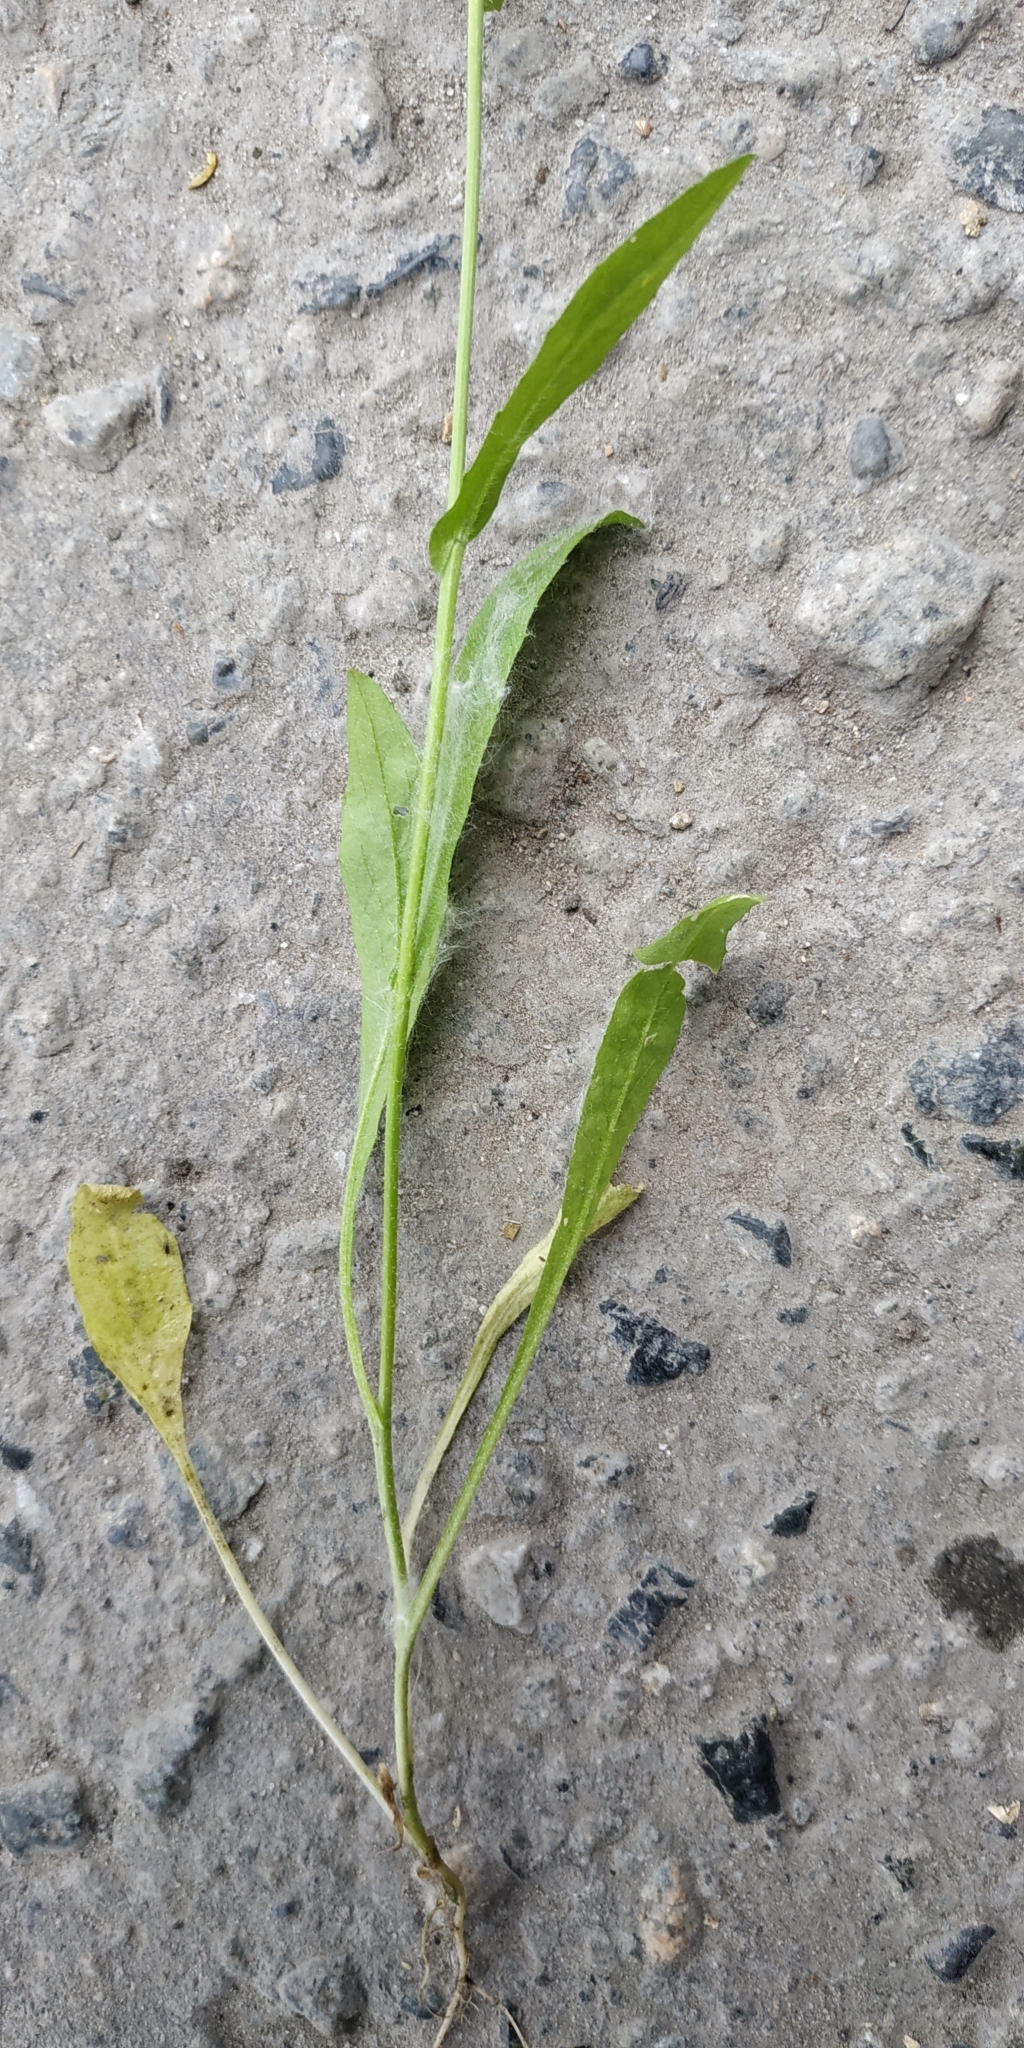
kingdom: Plantae
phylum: Tracheophyta
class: Magnoliopsida
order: Brassicales
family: Brassicaceae
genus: Capsella
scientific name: Capsella bursa-pastoris
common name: Shepherd's purse
